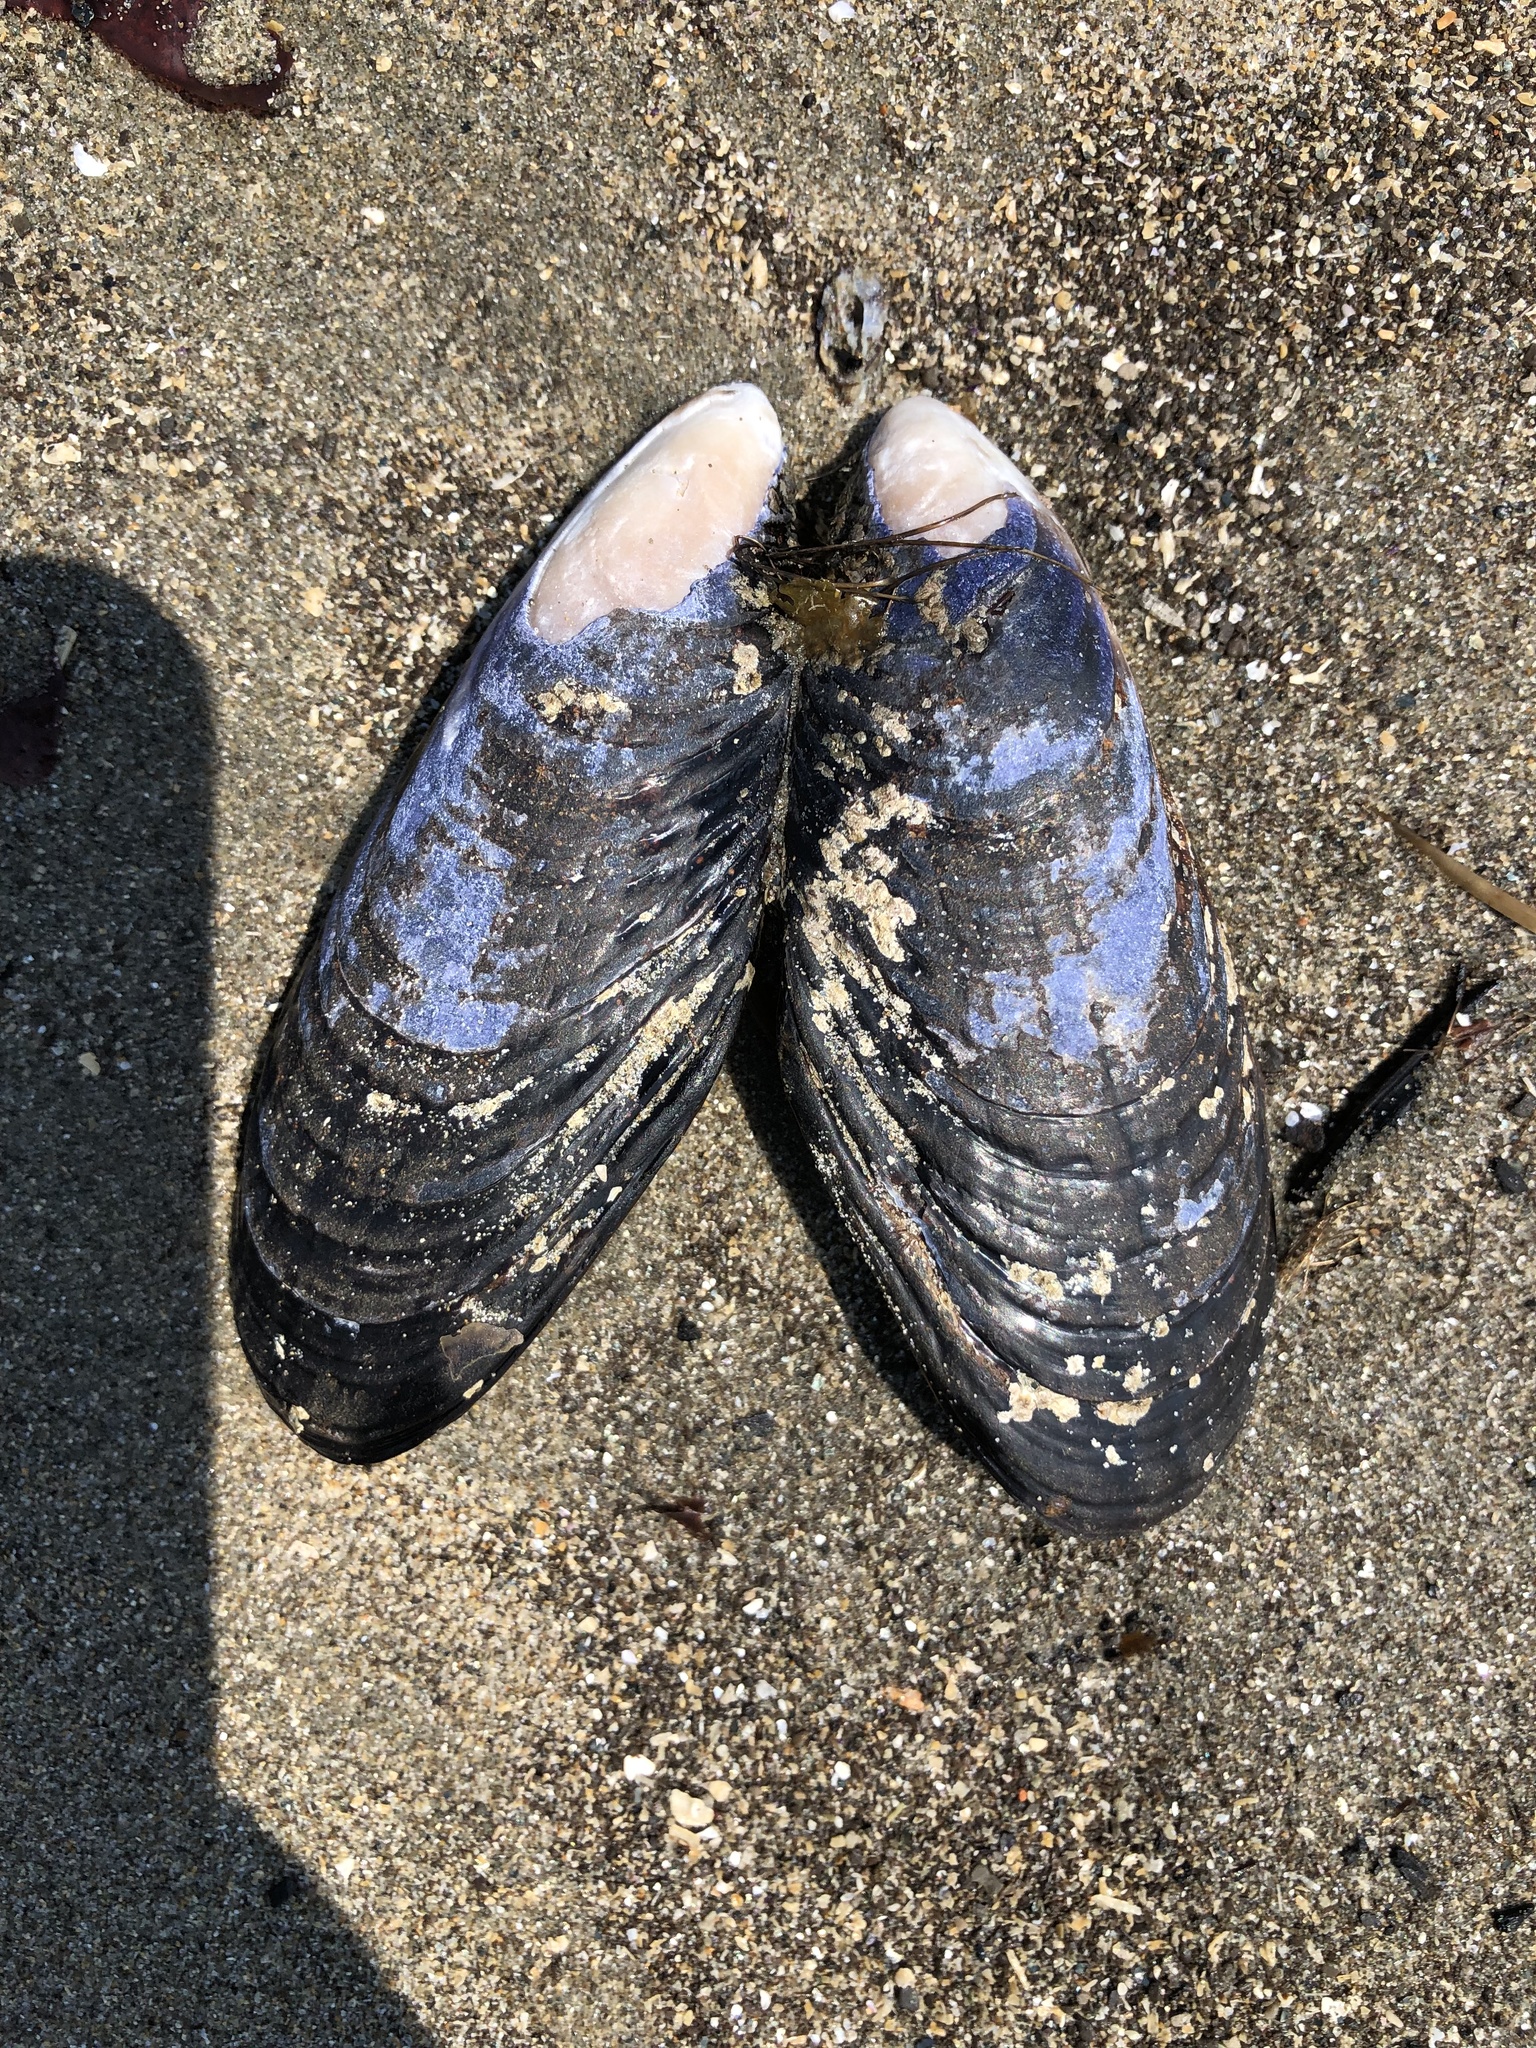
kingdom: Animalia
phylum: Mollusca
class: Bivalvia
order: Mytilida
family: Mytilidae
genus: Mytilus
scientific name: Mytilus californianus
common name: California mussel
